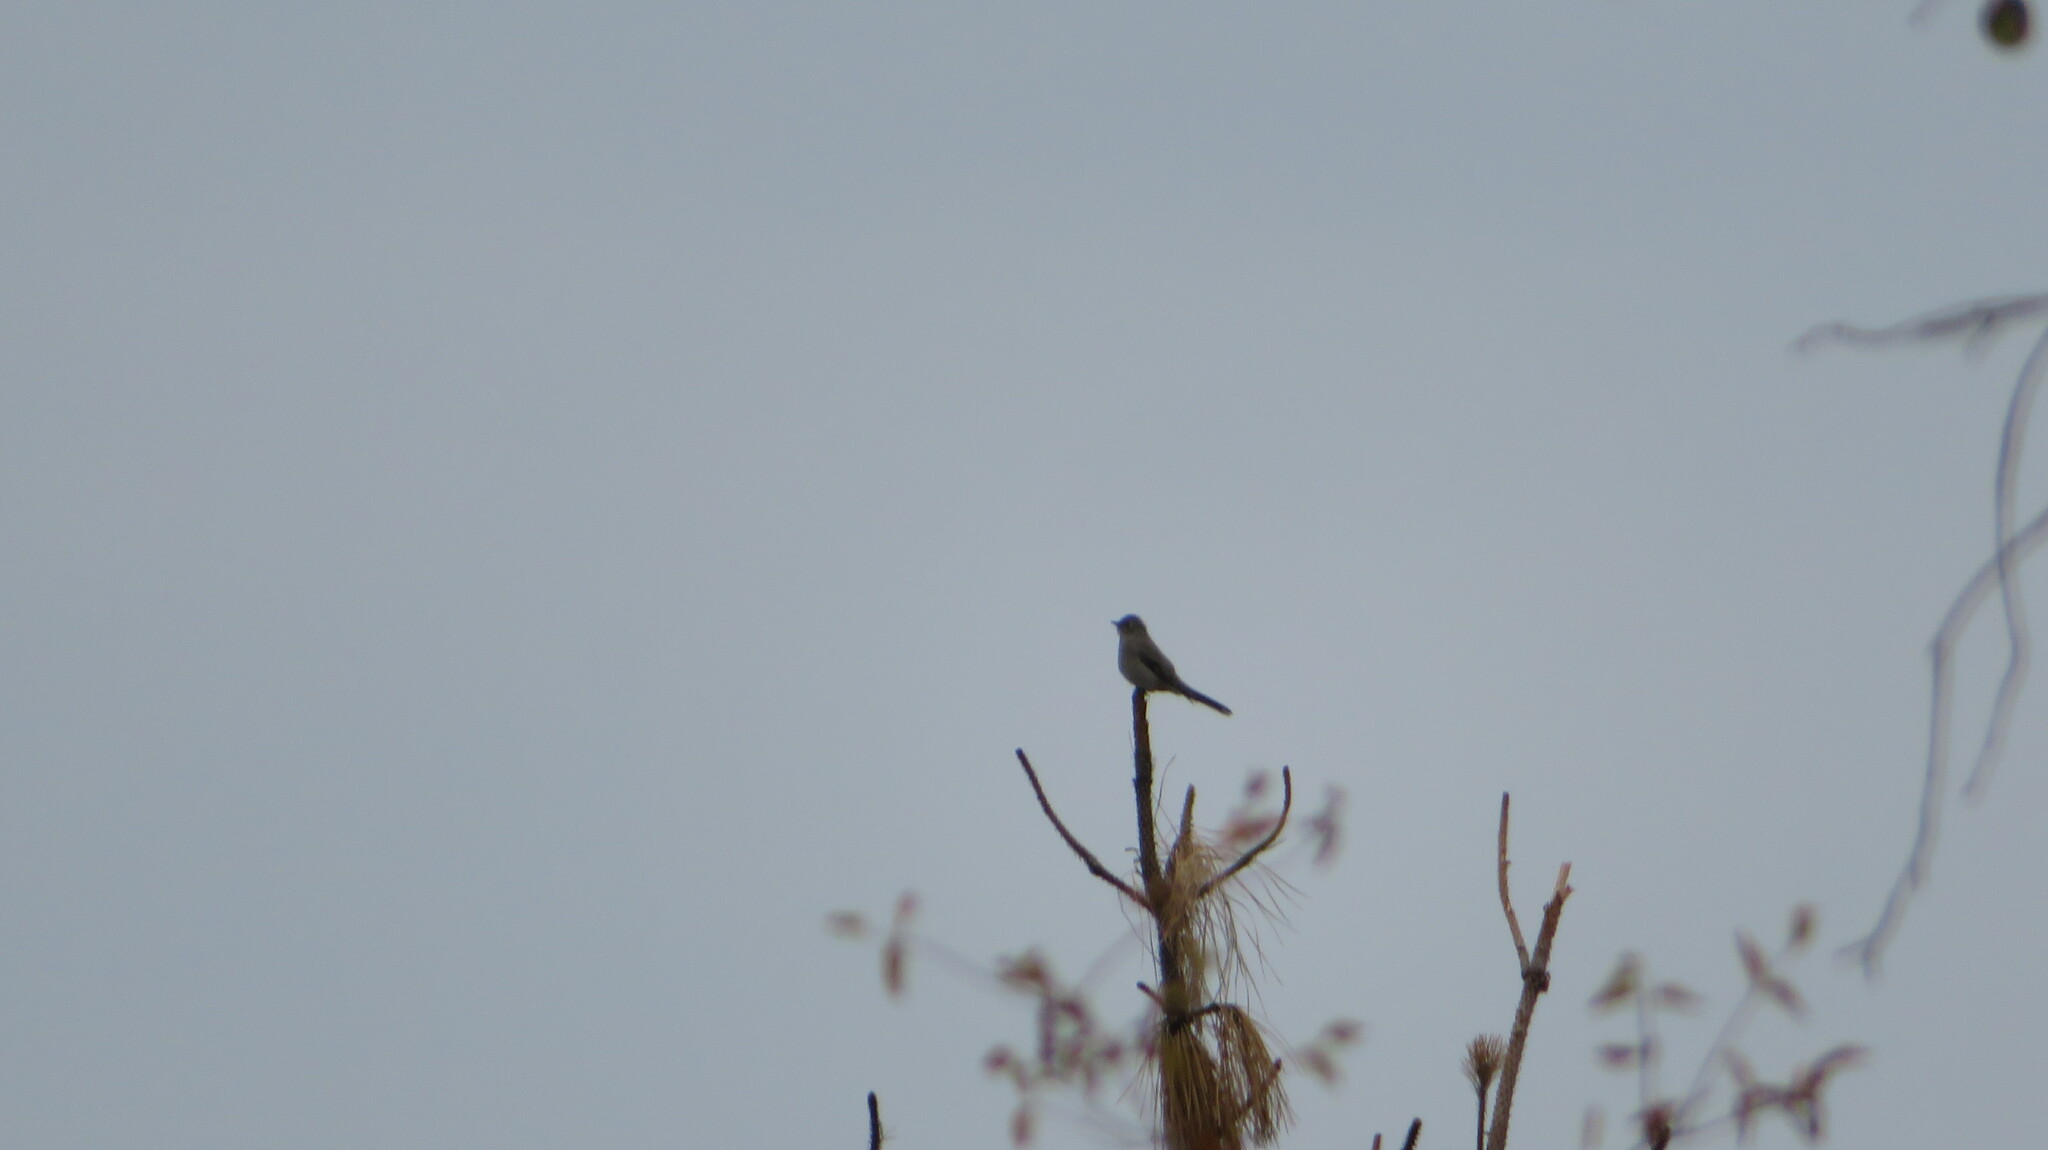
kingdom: Animalia
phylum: Chordata
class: Aves
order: Passeriformes
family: Turdidae
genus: Myadestes
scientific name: Myadestes townsendi
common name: Townsend's solitaire
